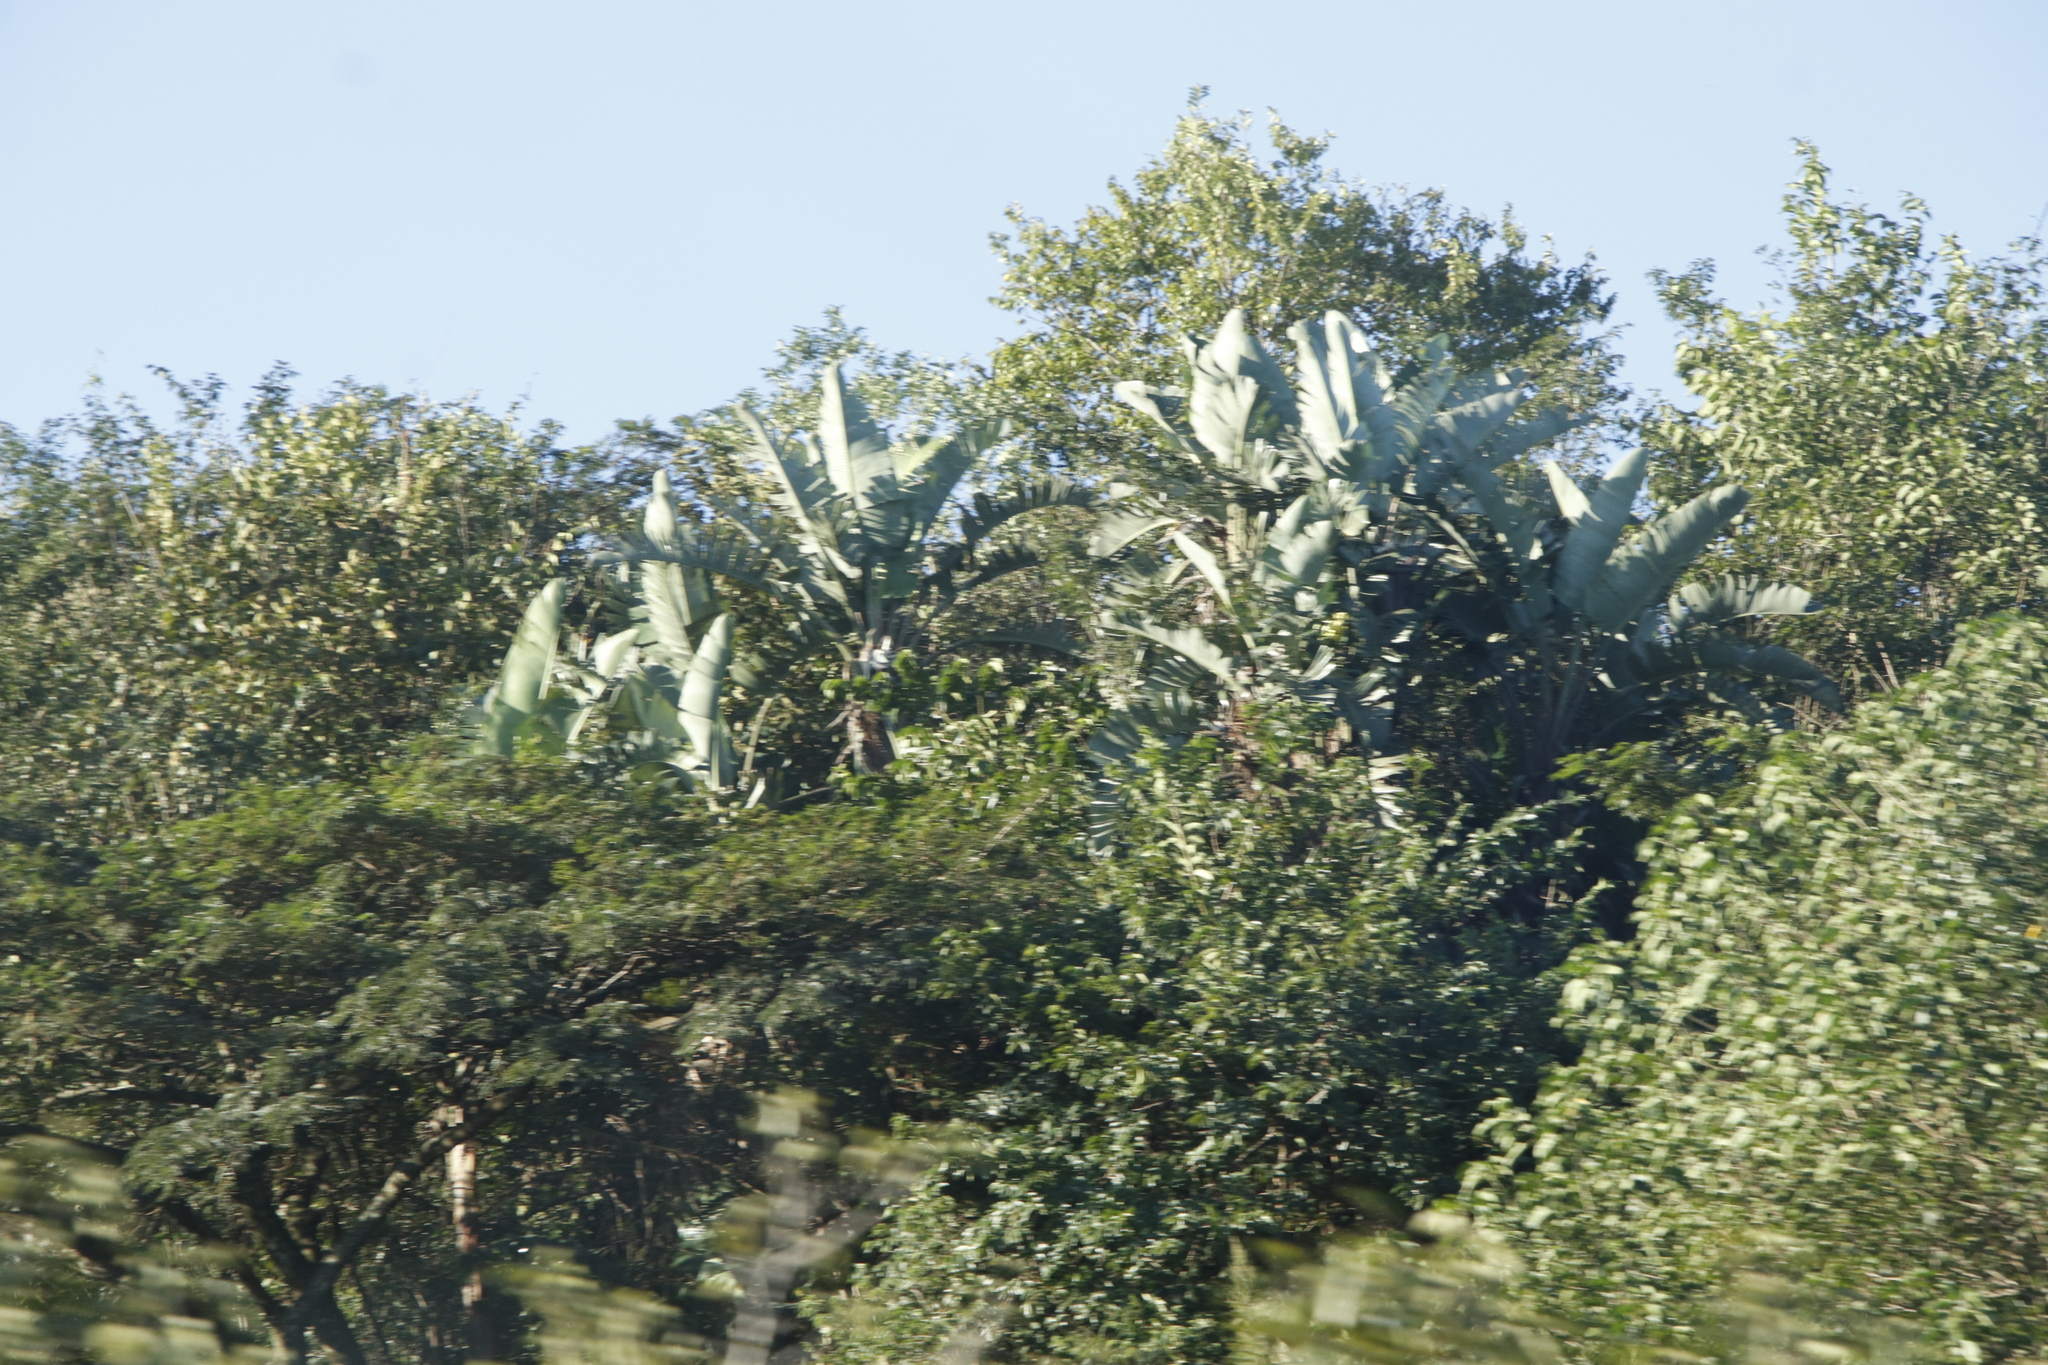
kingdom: Plantae
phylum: Tracheophyta
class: Liliopsida
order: Zingiberales
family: Strelitziaceae
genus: Strelitzia
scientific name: Strelitzia nicolai
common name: Bird-of-paradise tree
